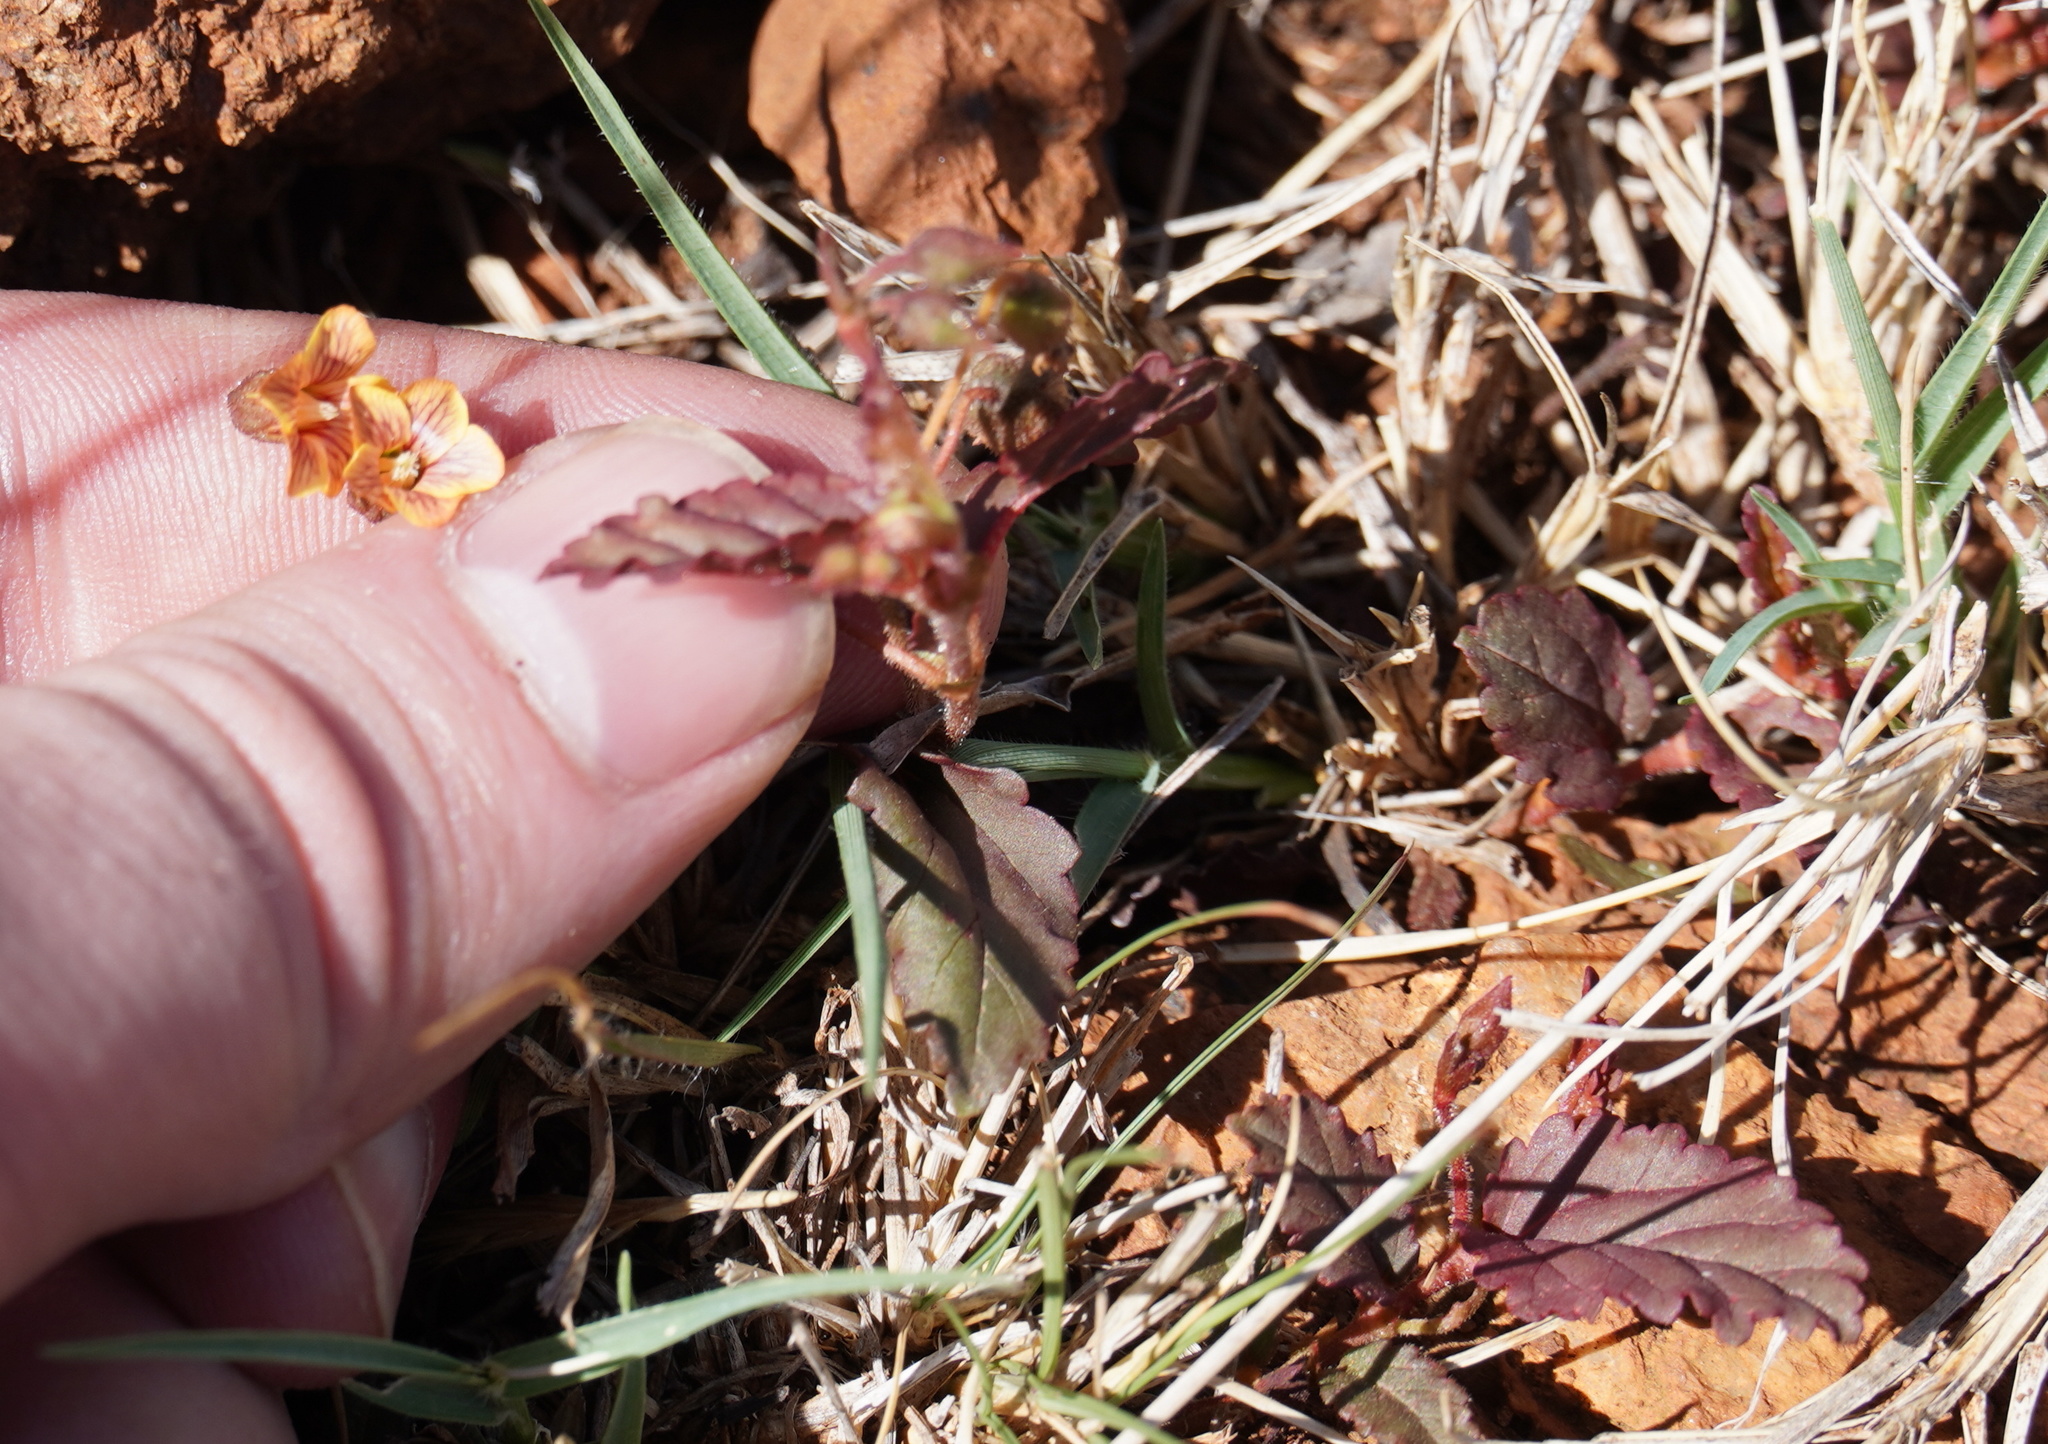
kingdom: Plantae
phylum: Tracheophyta
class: Magnoliopsida
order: Malvales
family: Malvaceae
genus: Hermannia
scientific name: Hermannia depressa
